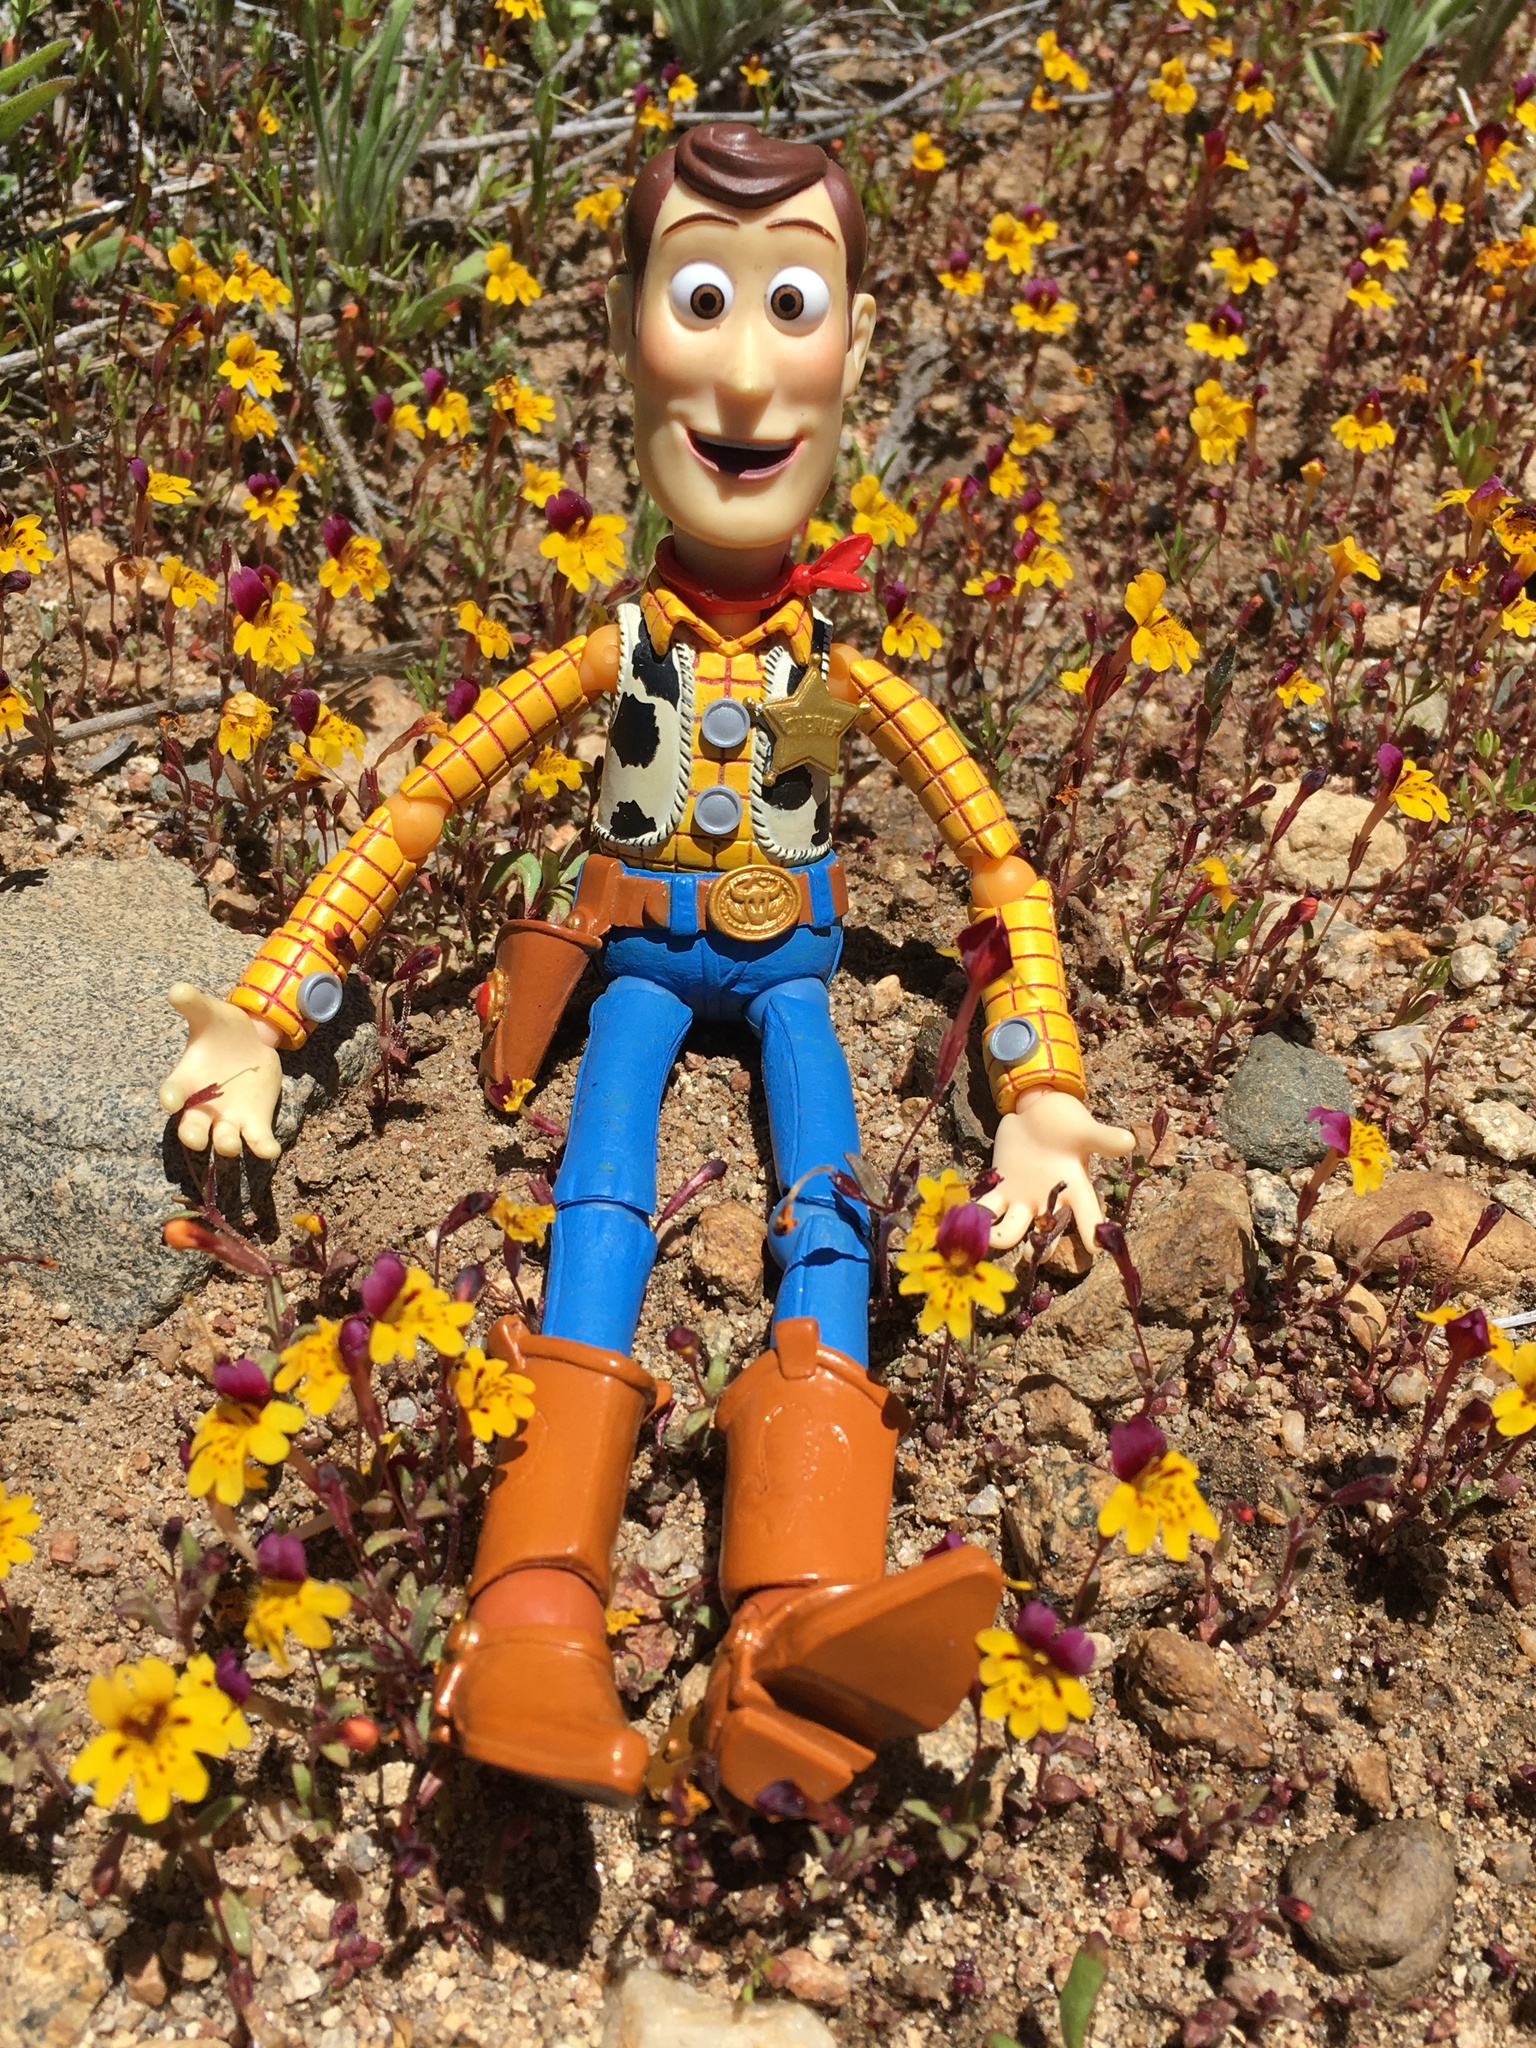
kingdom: Plantae
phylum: Tracheophyta
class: Magnoliopsida
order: Lamiales
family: Phrymaceae
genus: Erythranthe
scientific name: Erythranthe barbata
